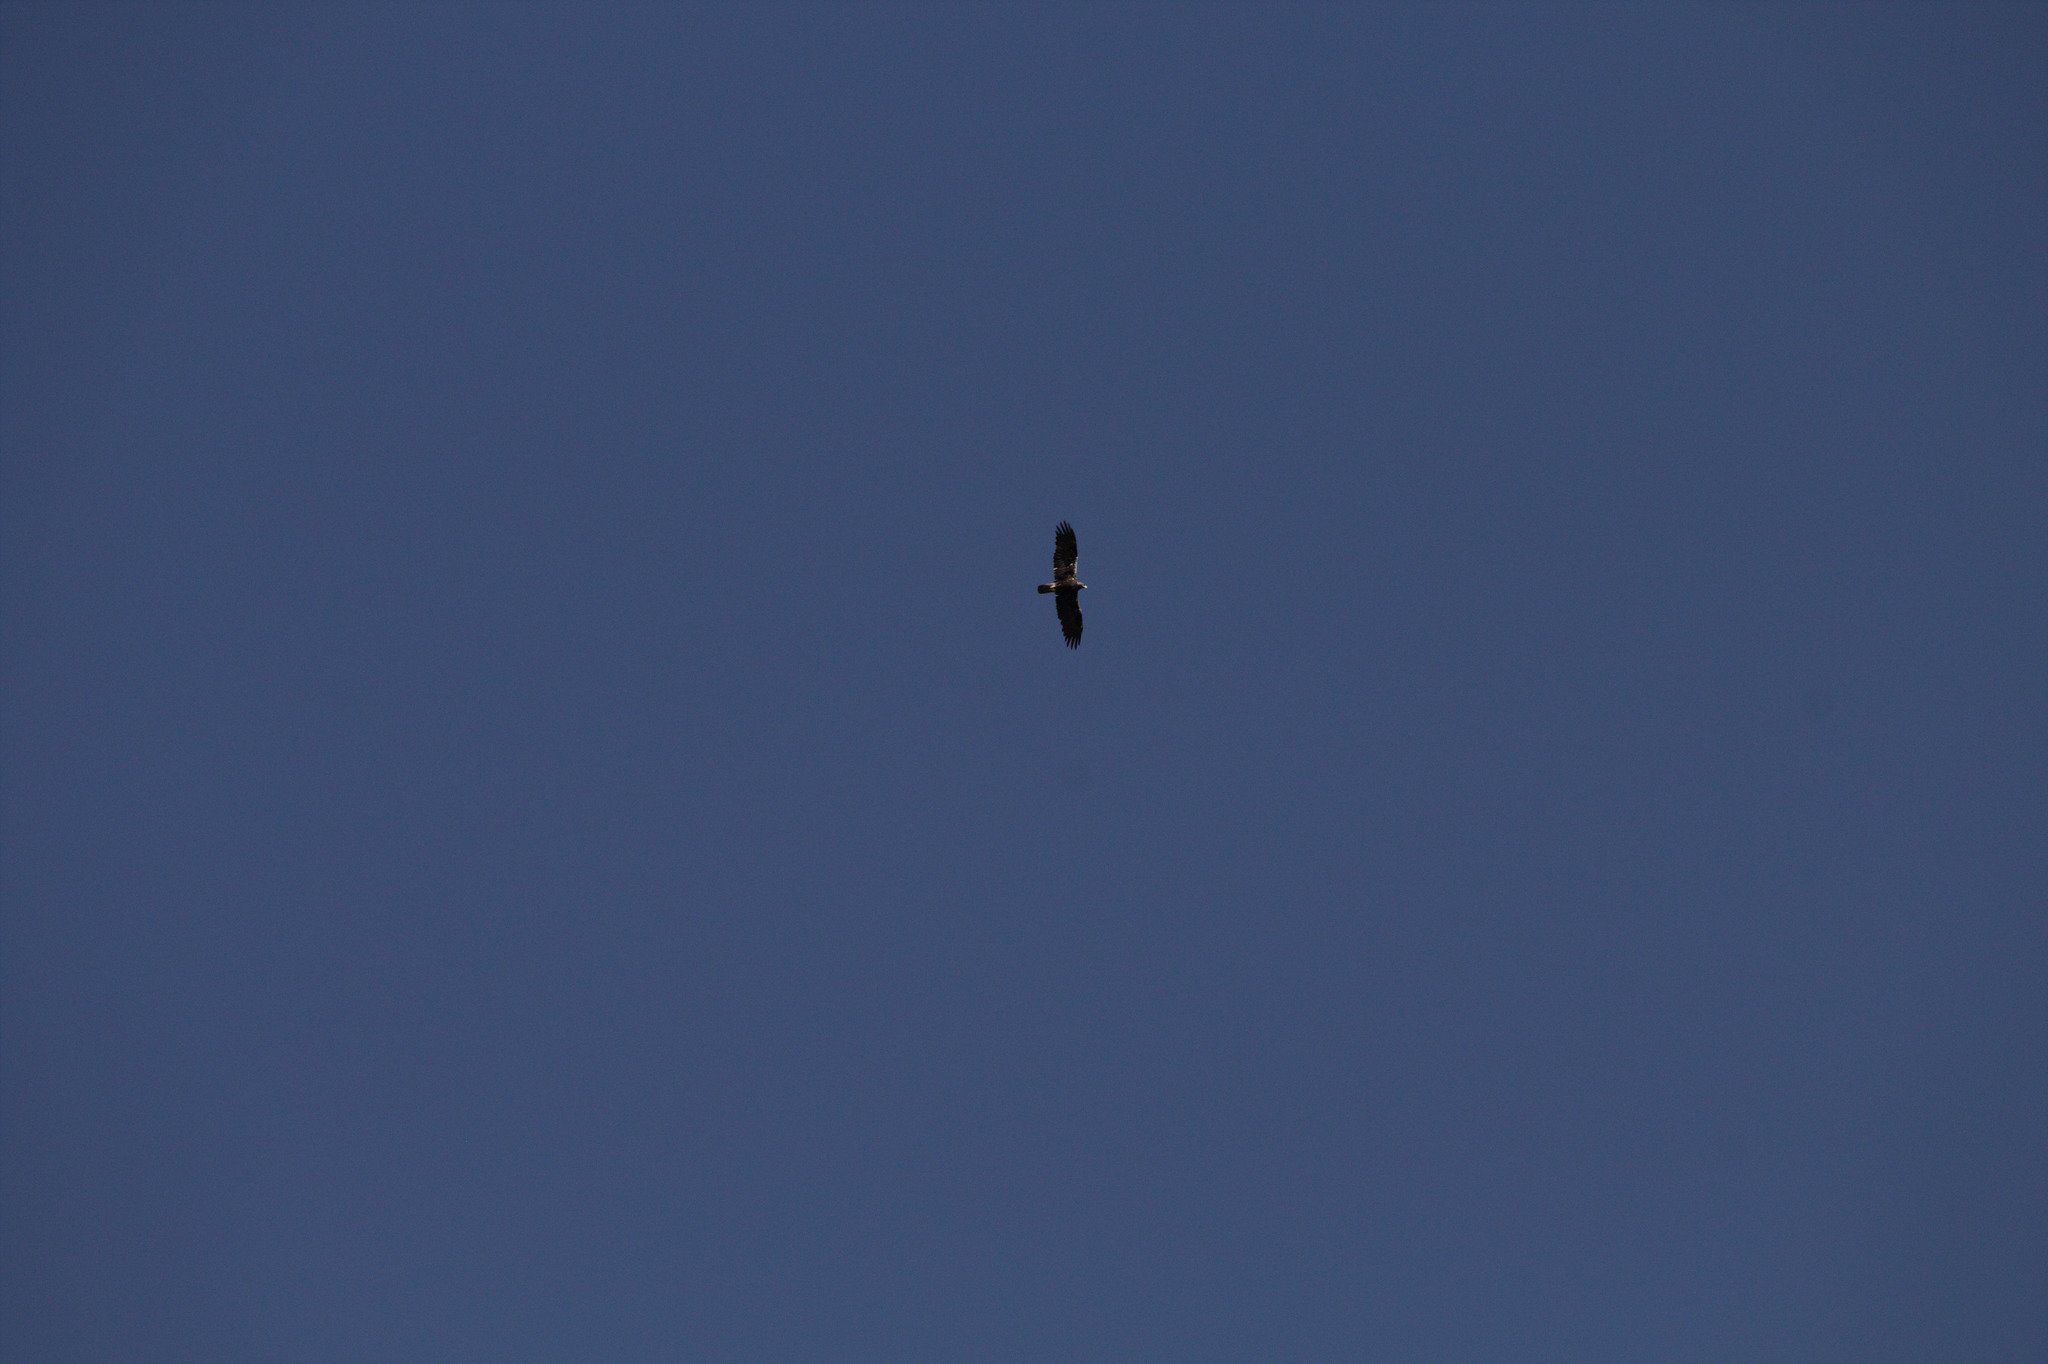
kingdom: Animalia
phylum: Chordata
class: Aves
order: Accipitriformes
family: Accipitridae
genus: Aquila
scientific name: Aquila adalberti
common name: Spanish imperial eagle
